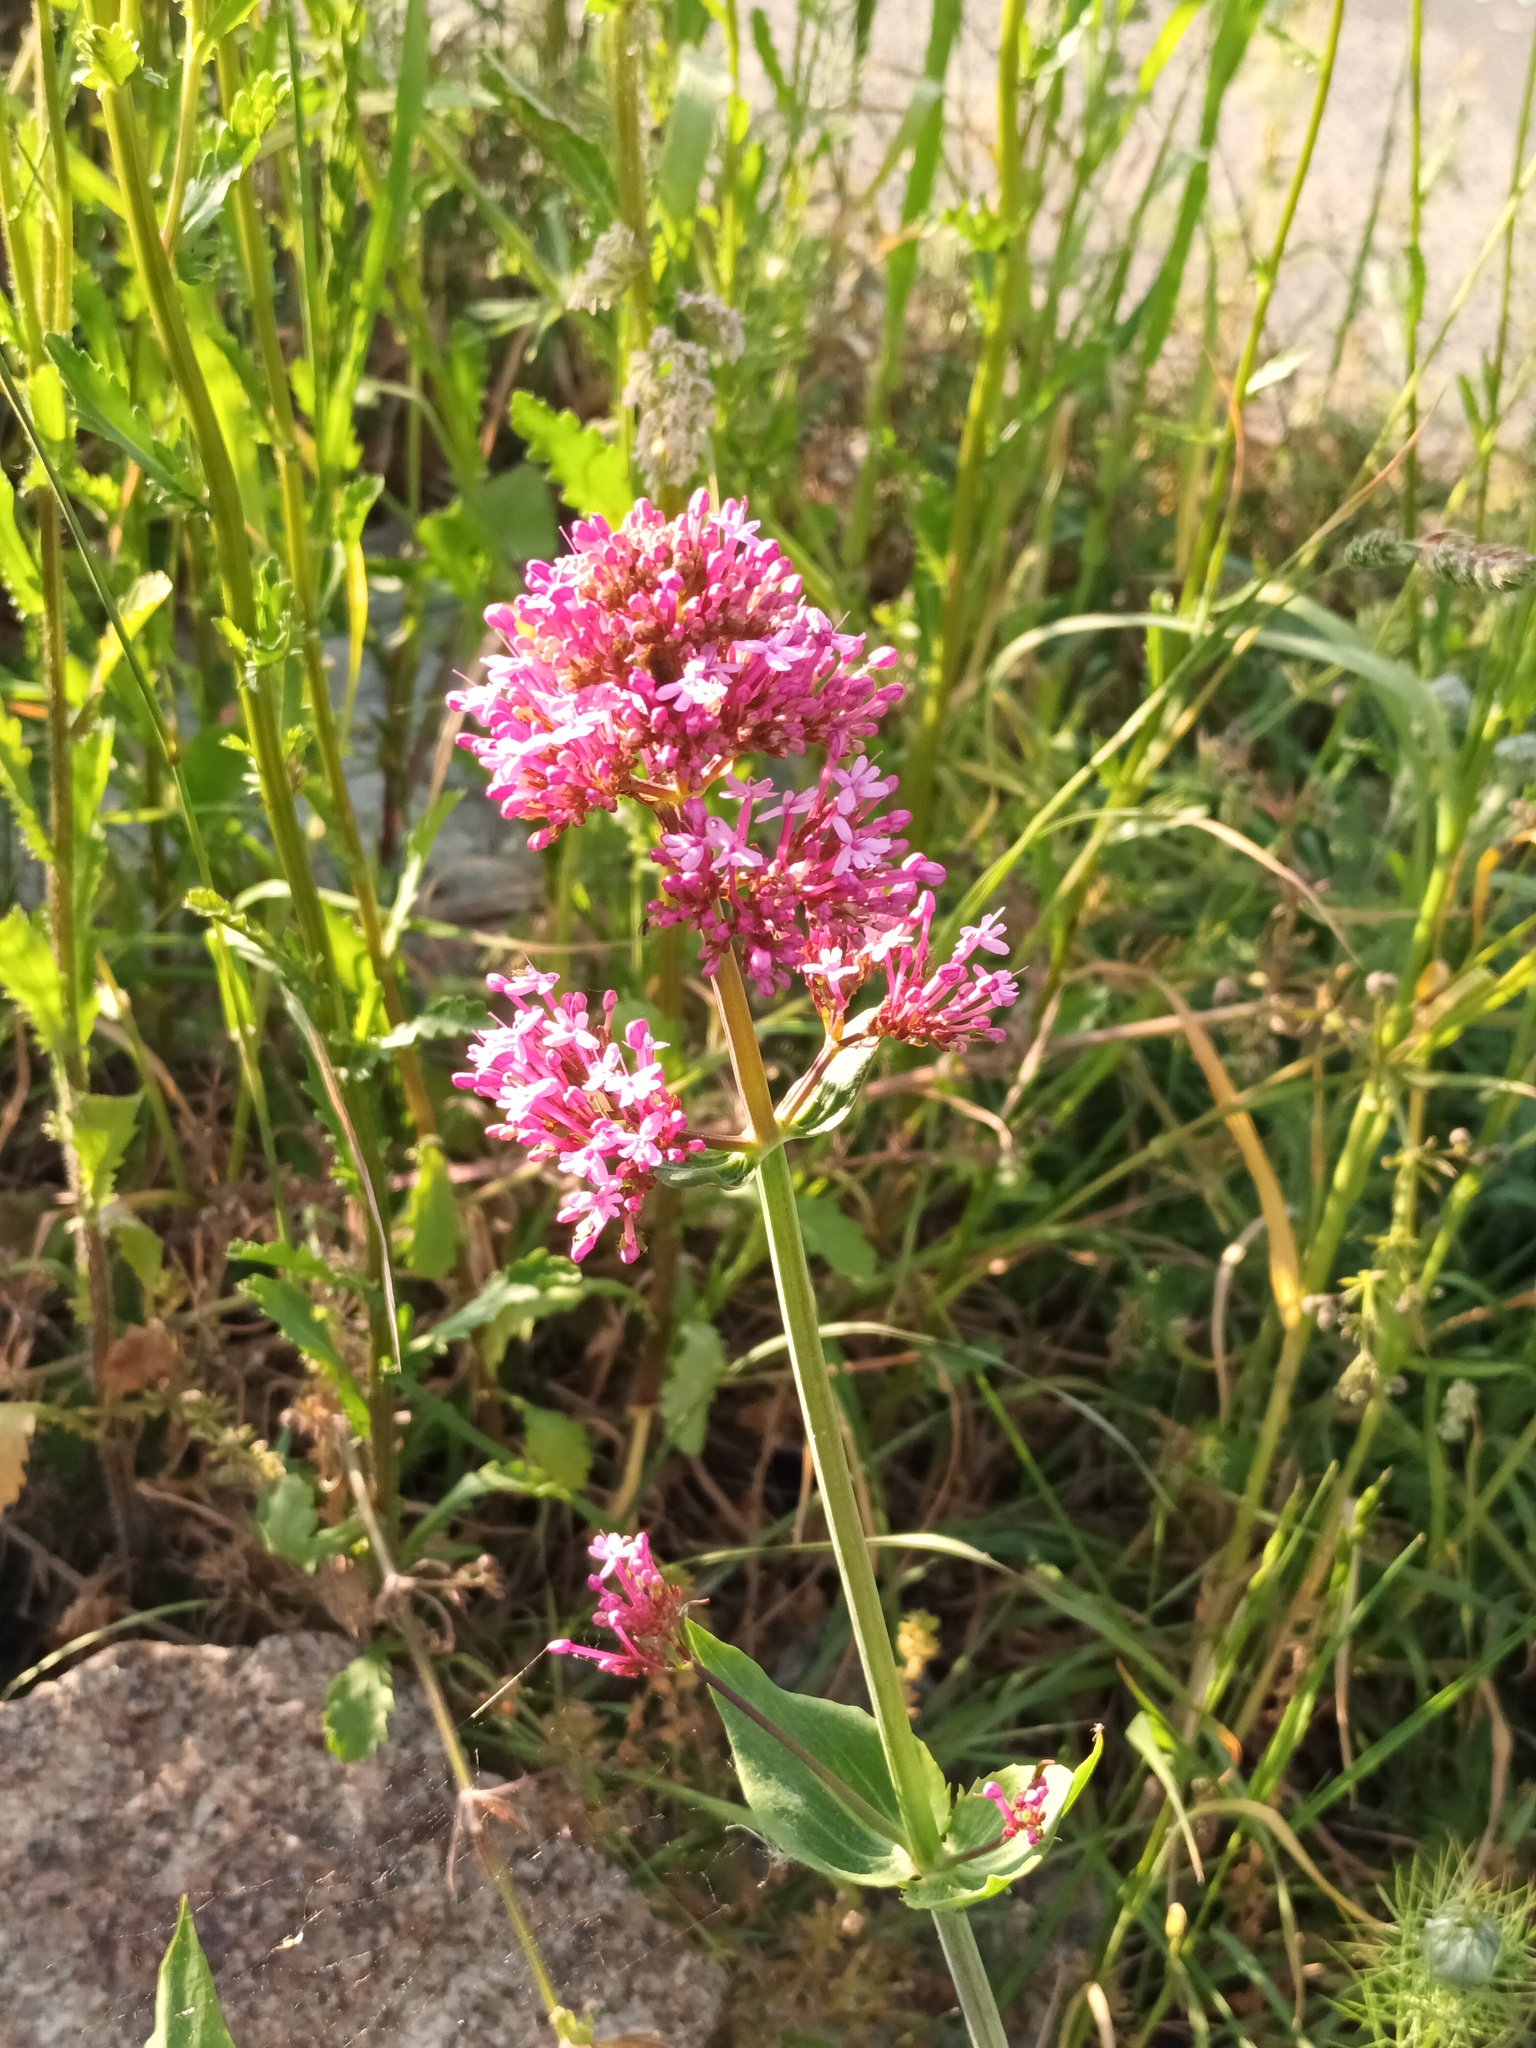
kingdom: Plantae
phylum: Tracheophyta
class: Magnoliopsida
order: Dipsacales
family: Caprifoliaceae
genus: Centranthus
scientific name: Centranthus ruber
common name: Red valerian
